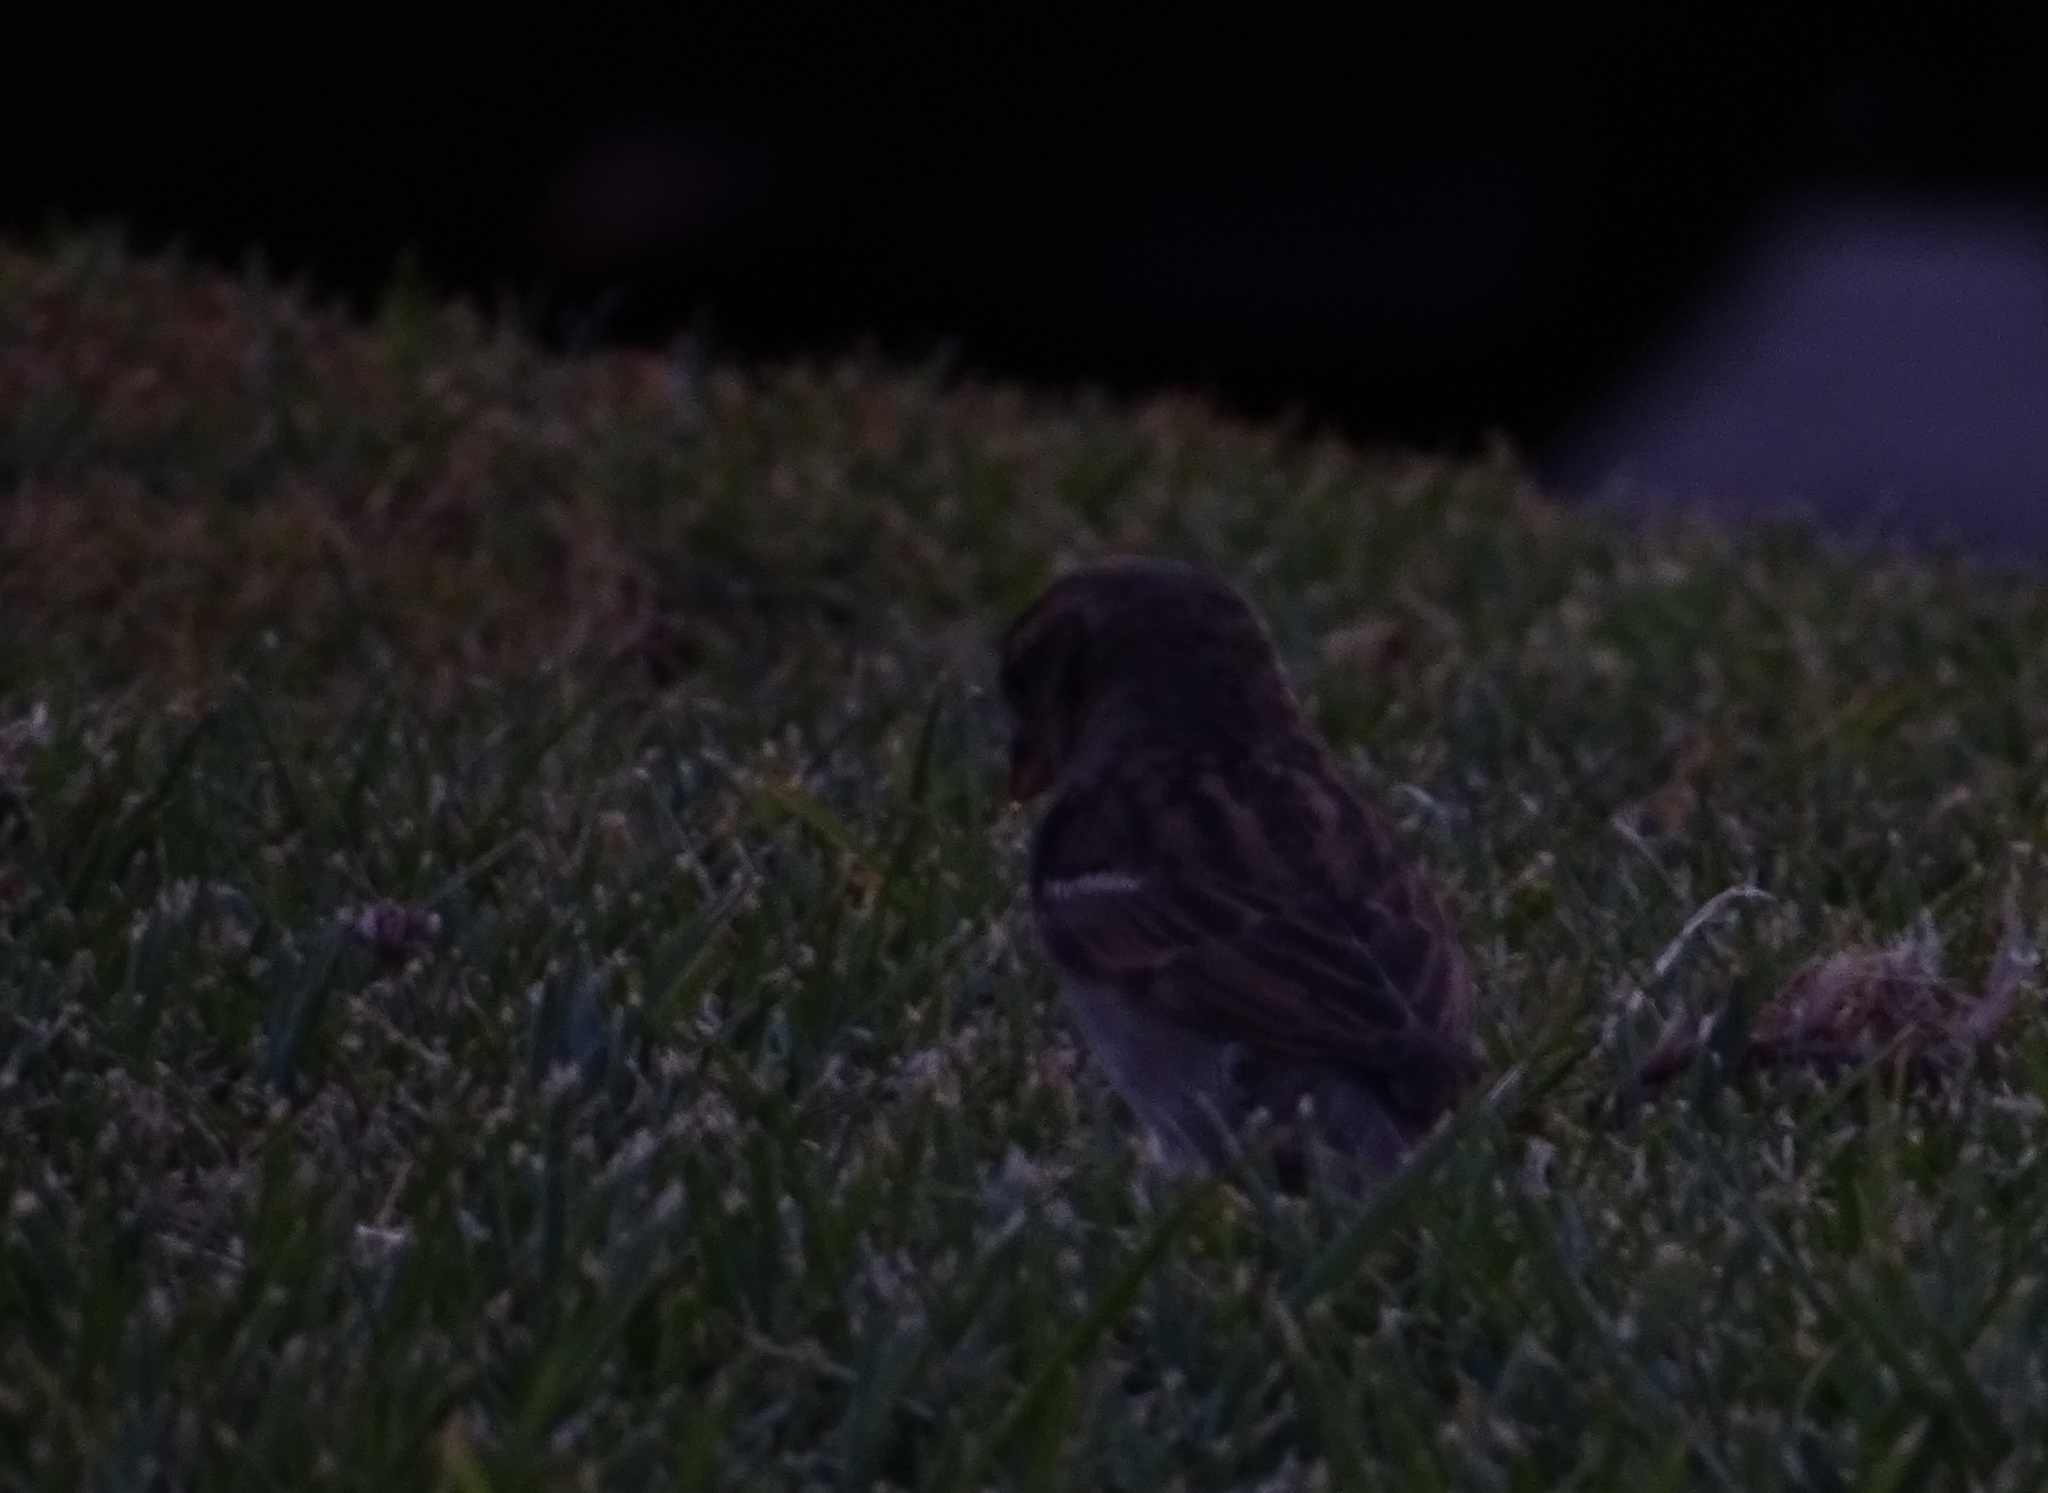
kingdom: Animalia
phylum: Chordata
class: Aves
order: Passeriformes
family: Passeridae
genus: Passer
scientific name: Passer domesticus
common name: House sparrow
